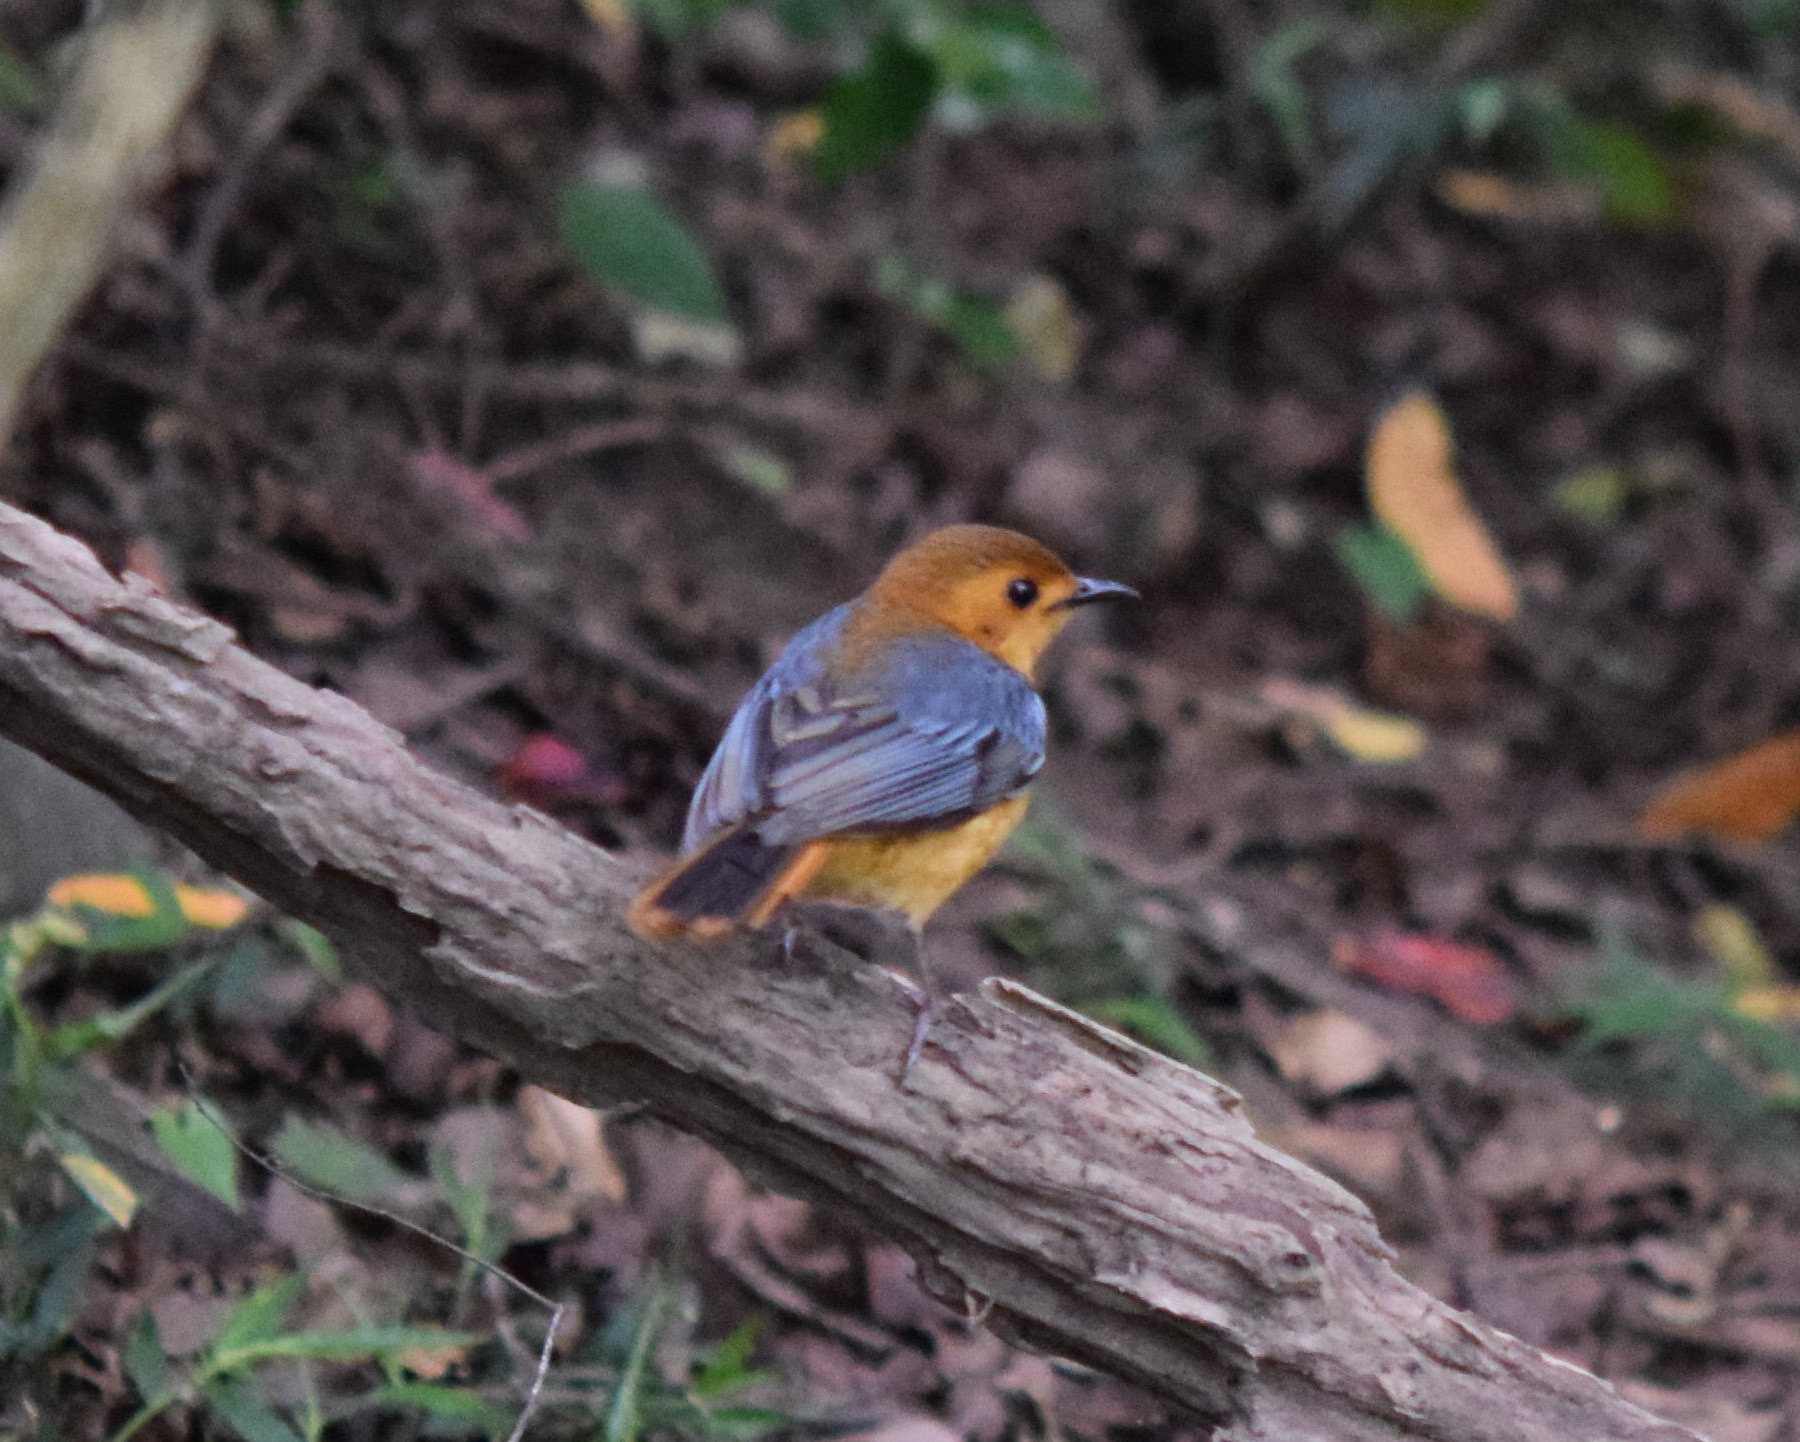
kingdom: Animalia
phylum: Chordata
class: Aves
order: Passeriformes
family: Muscicapidae
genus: Cossypha
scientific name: Cossypha natalensis
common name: Red-capped robin-chat
